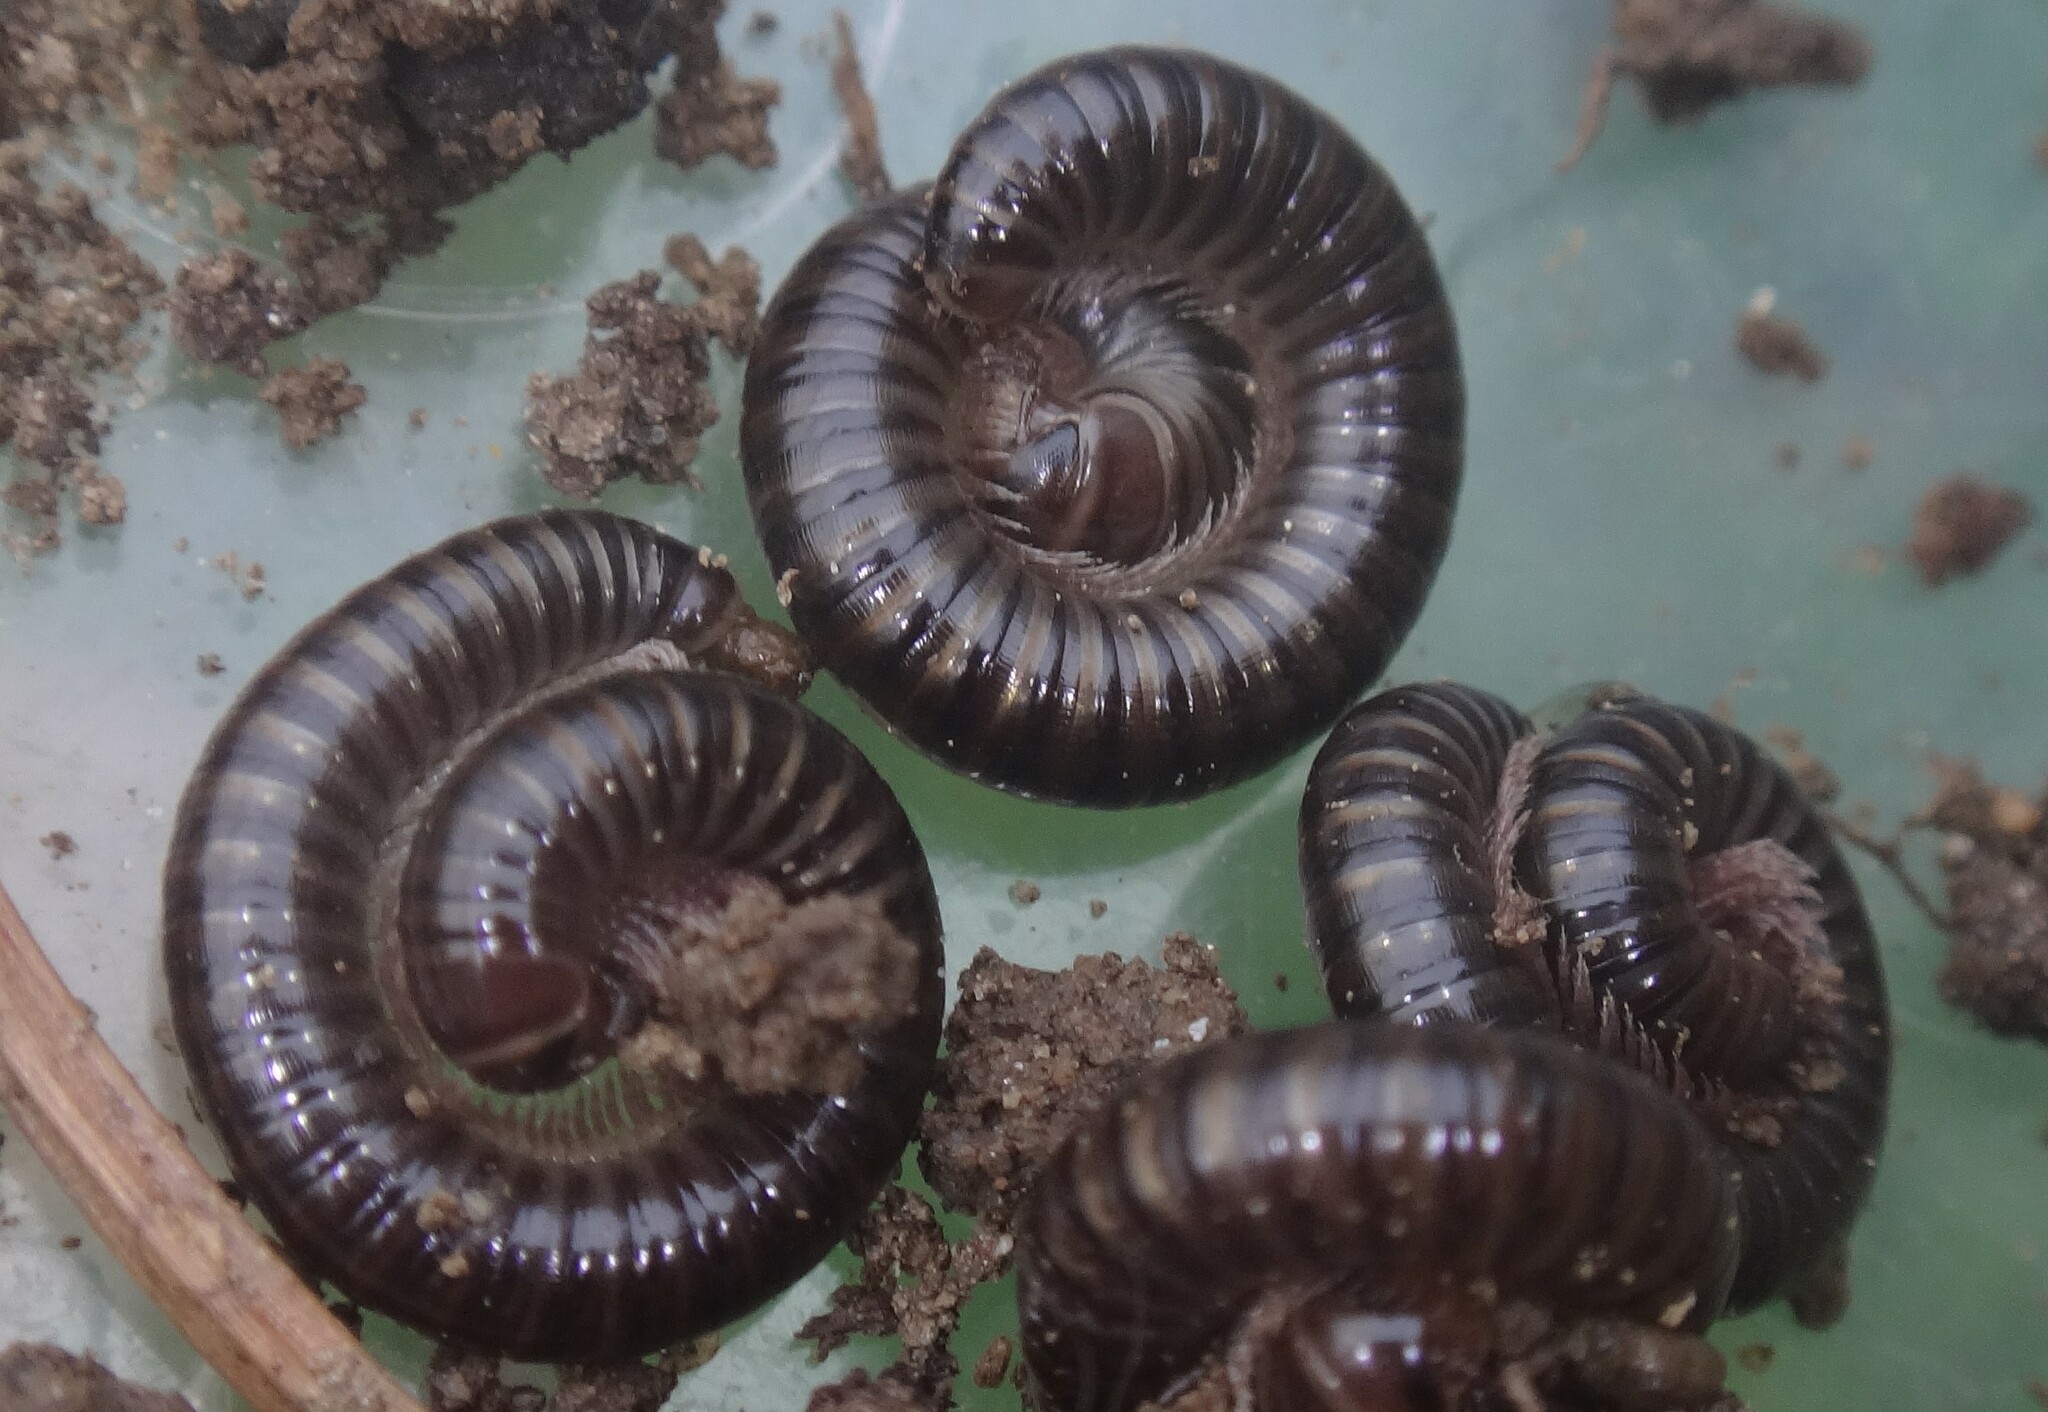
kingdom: Animalia
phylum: Arthropoda
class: Diplopoda
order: Julida
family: Julidae
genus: Cylindroiulus
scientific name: Cylindroiulus caeruleocinctus
